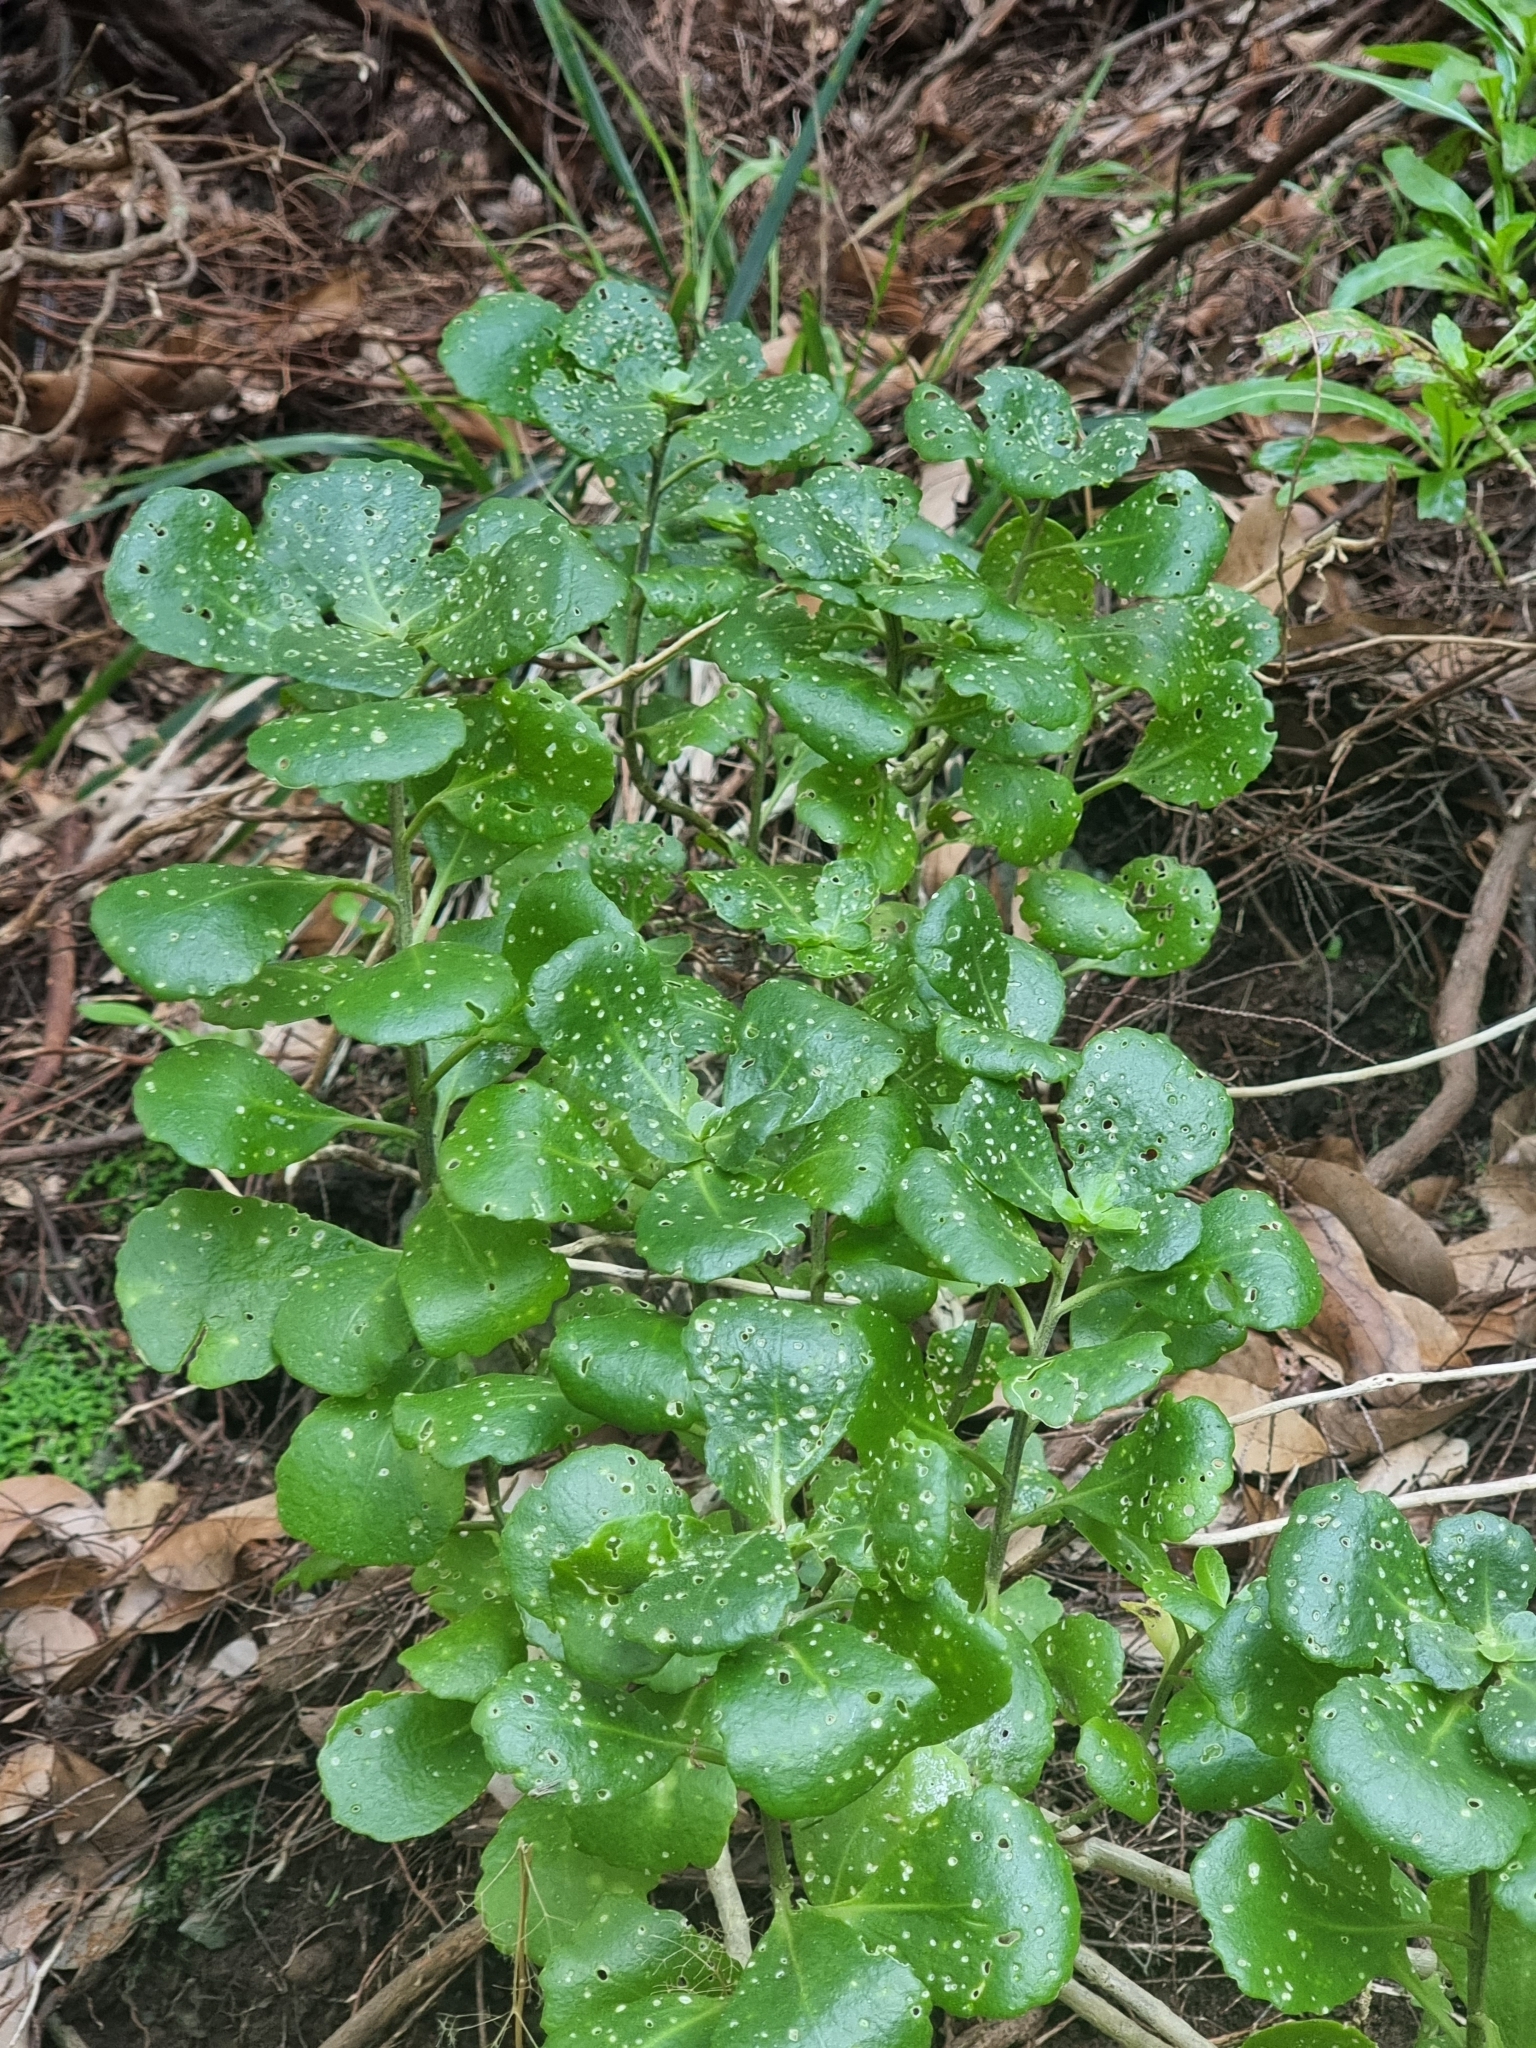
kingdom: Plantae
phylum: Tracheophyta
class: Magnoliopsida
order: Saxifragales
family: Crassulaceae
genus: Aichryson
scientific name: Aichryson divaricatum
